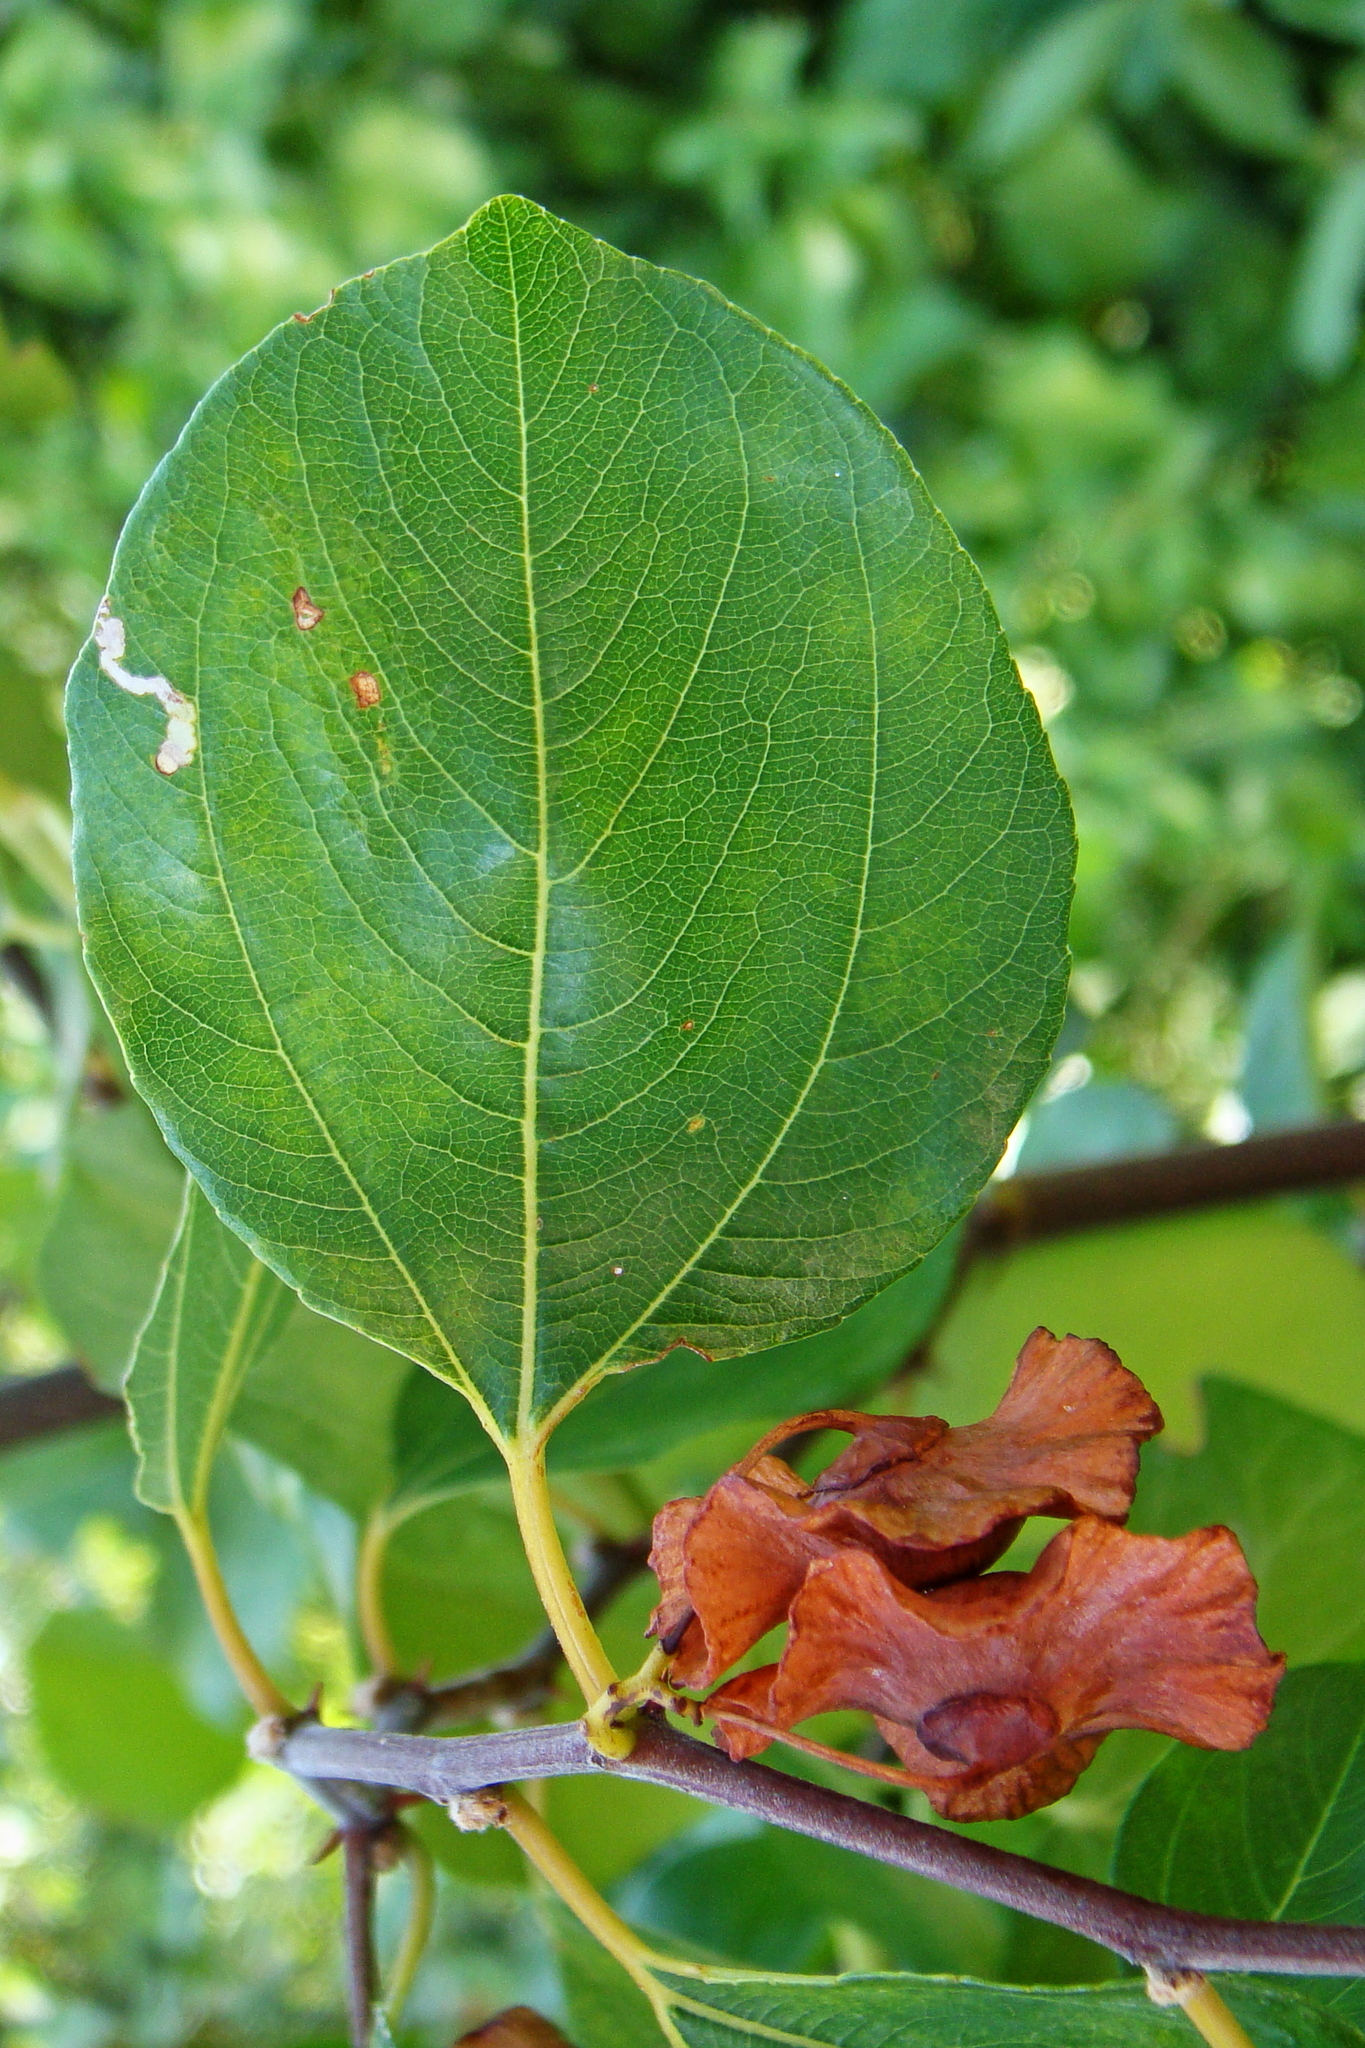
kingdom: Plantae
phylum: Tracheophyta
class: Magnoliopsida
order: Rosales
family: Rhamnaceae
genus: Paliurus
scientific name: Paliurus spina-christi
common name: Jeruselem thorn
